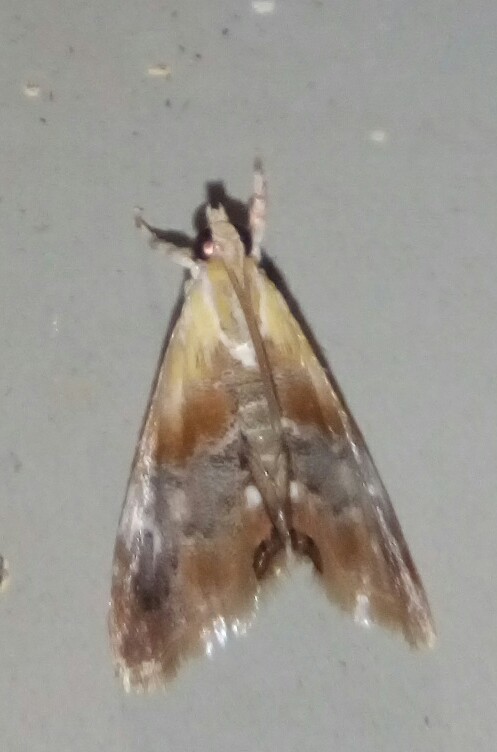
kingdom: Animalia
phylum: Arthropoda
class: Insecta
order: Lepidoptera
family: Crambidae
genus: Dicymolomia
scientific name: Dicymolomia julianalis
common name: Julia's dicymolomia moth
